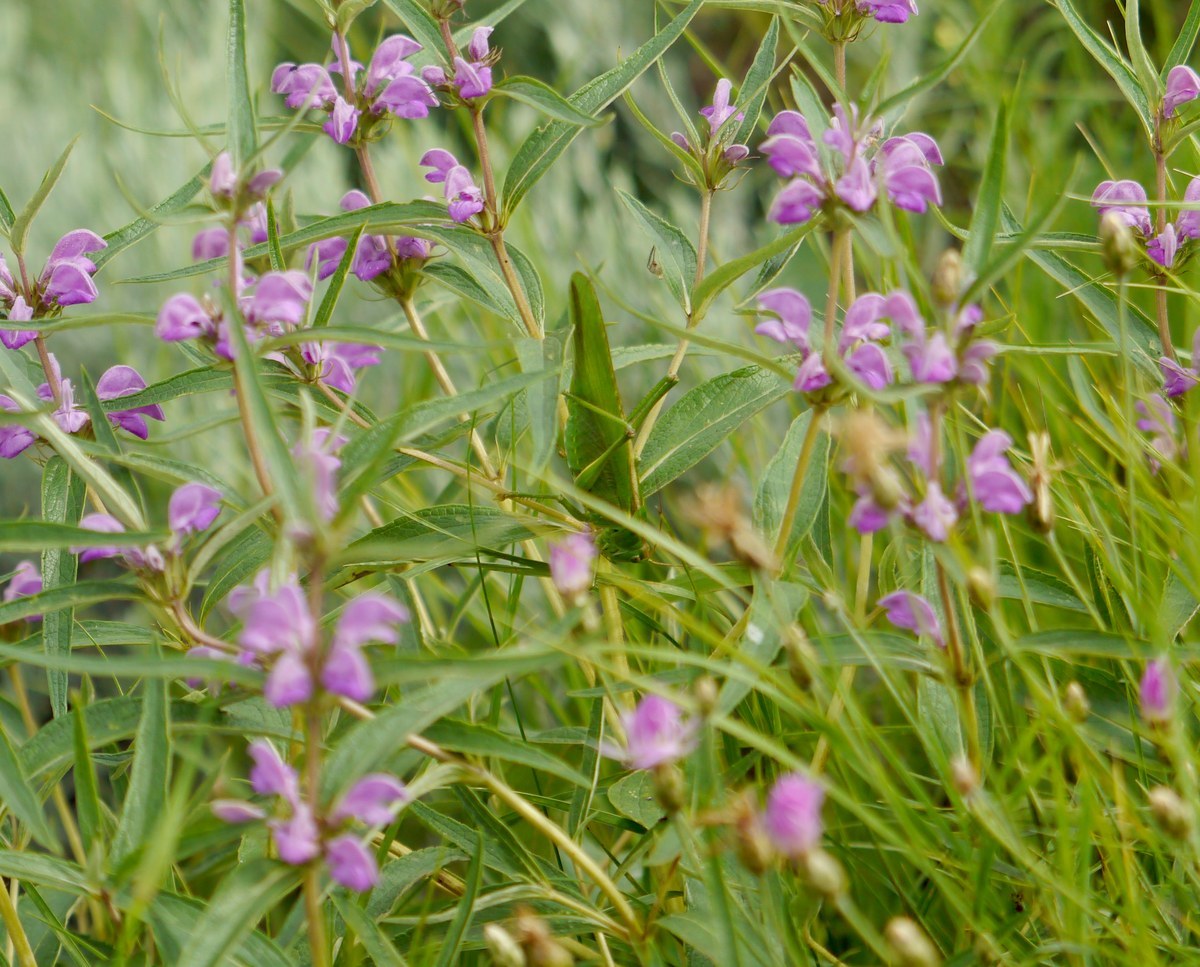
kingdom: Animalia
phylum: Arthropoda
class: Insecta
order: Orthoptera
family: Tettigoniidae
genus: Tettigonia
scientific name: Tettigonia viridissima
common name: Great green bush-cricket
